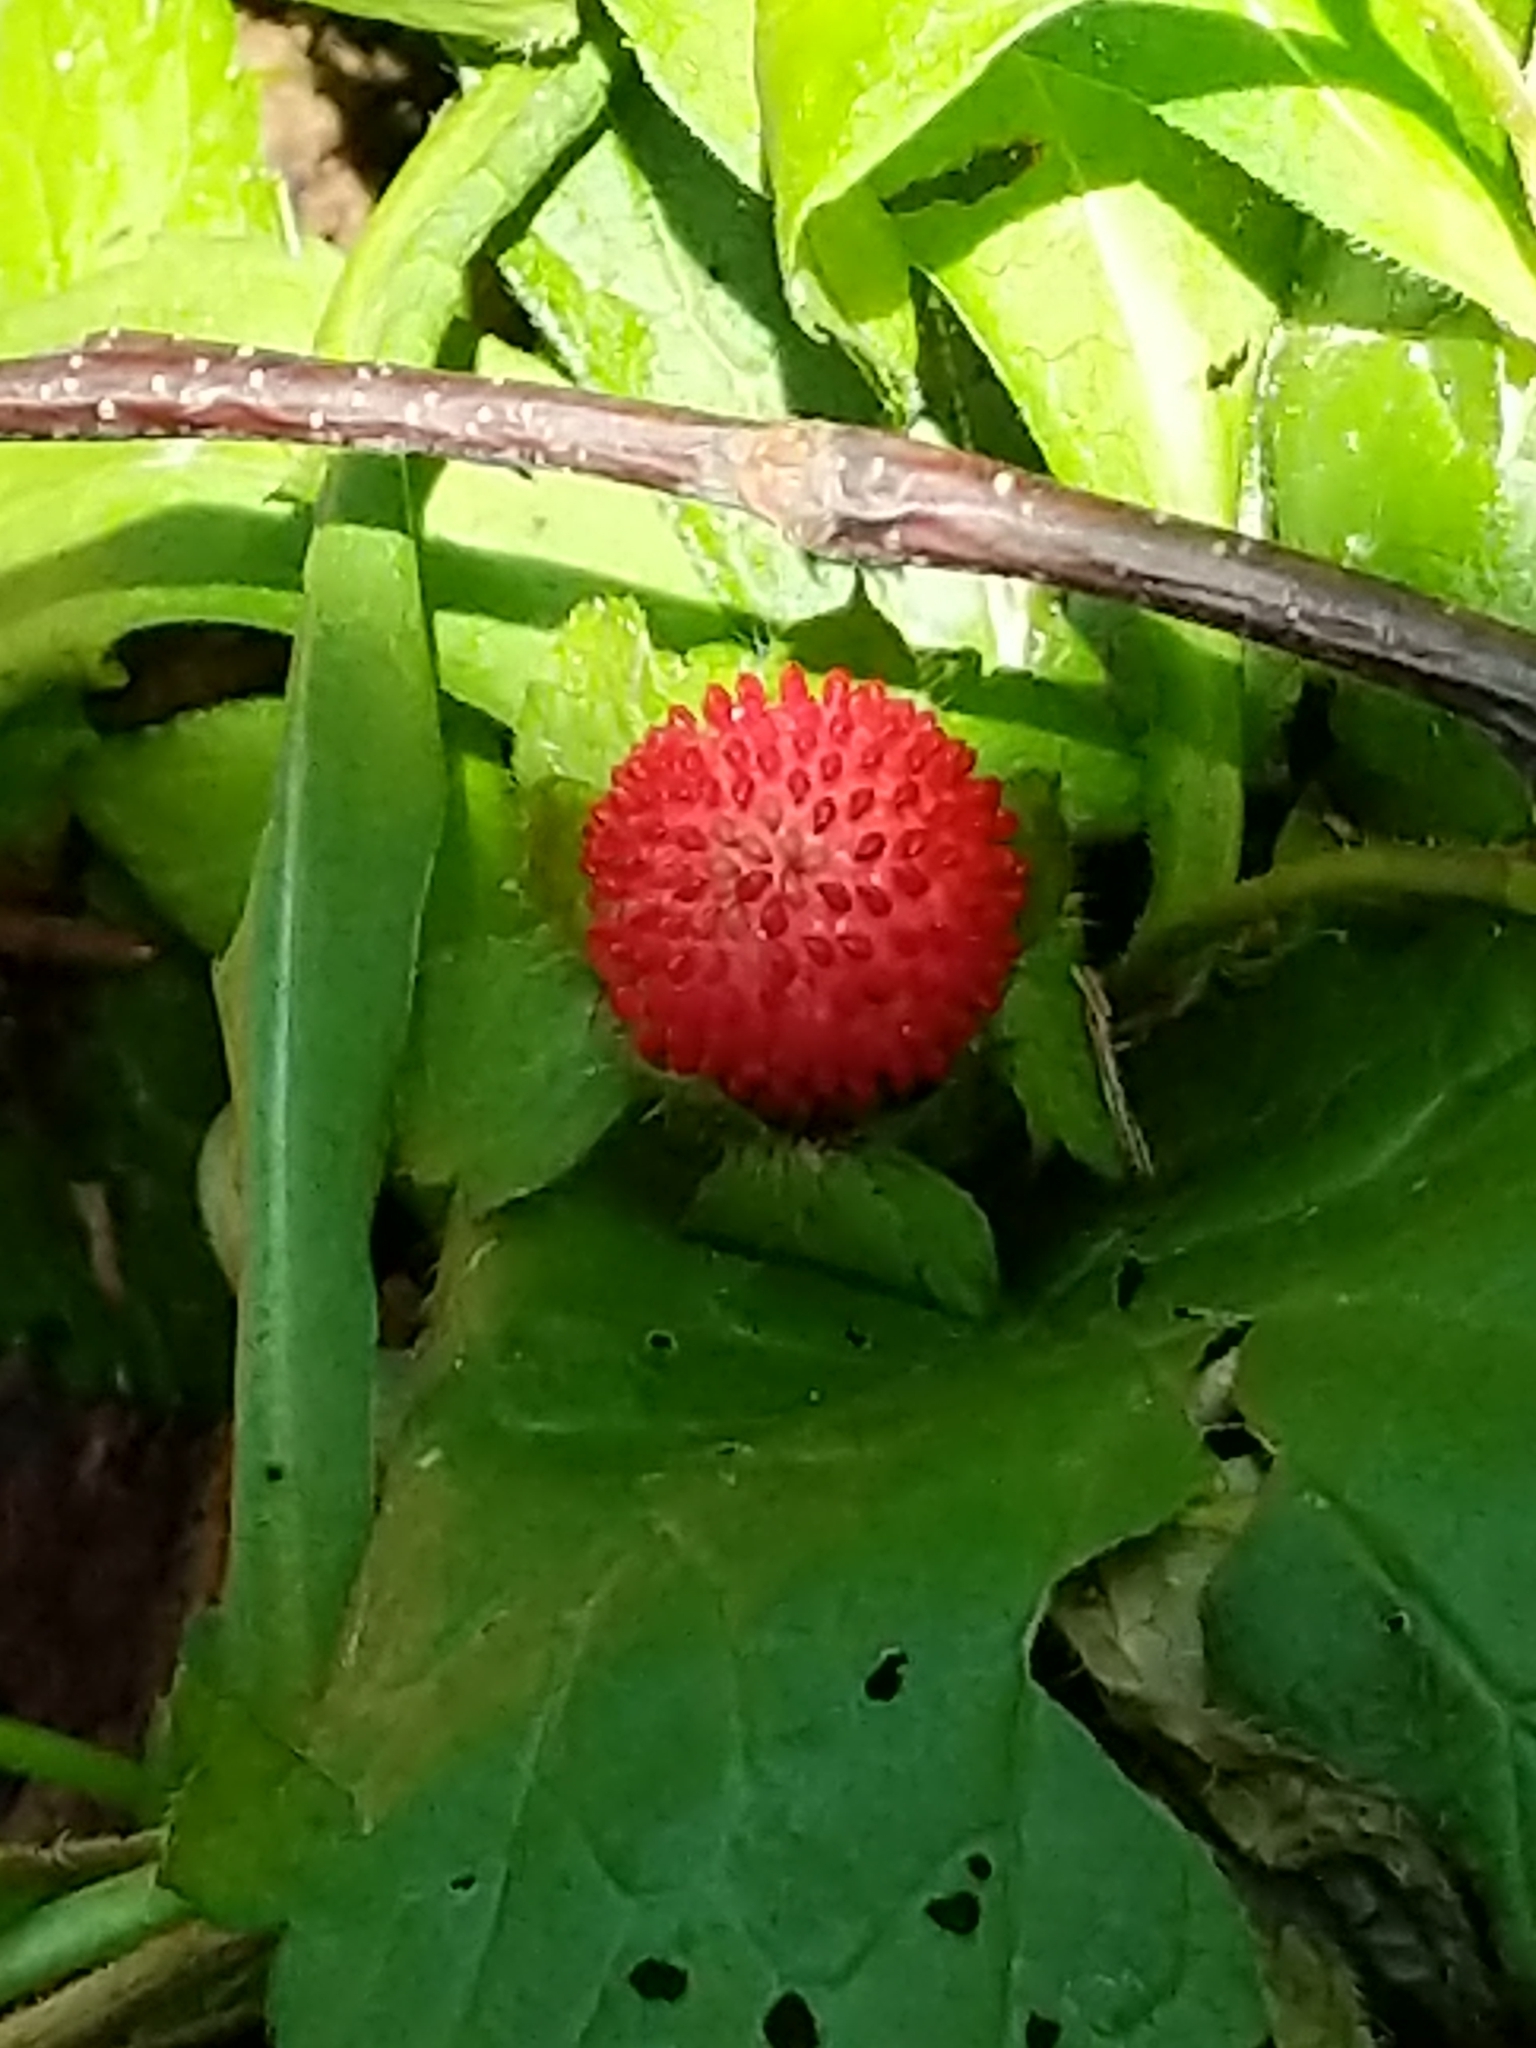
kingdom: Plantae
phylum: Tracheophyta
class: Magnoliopsida
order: Rosales
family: Rosaceae
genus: Potentilla
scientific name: Potentilla indica
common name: Yellow-flowered strawberry
